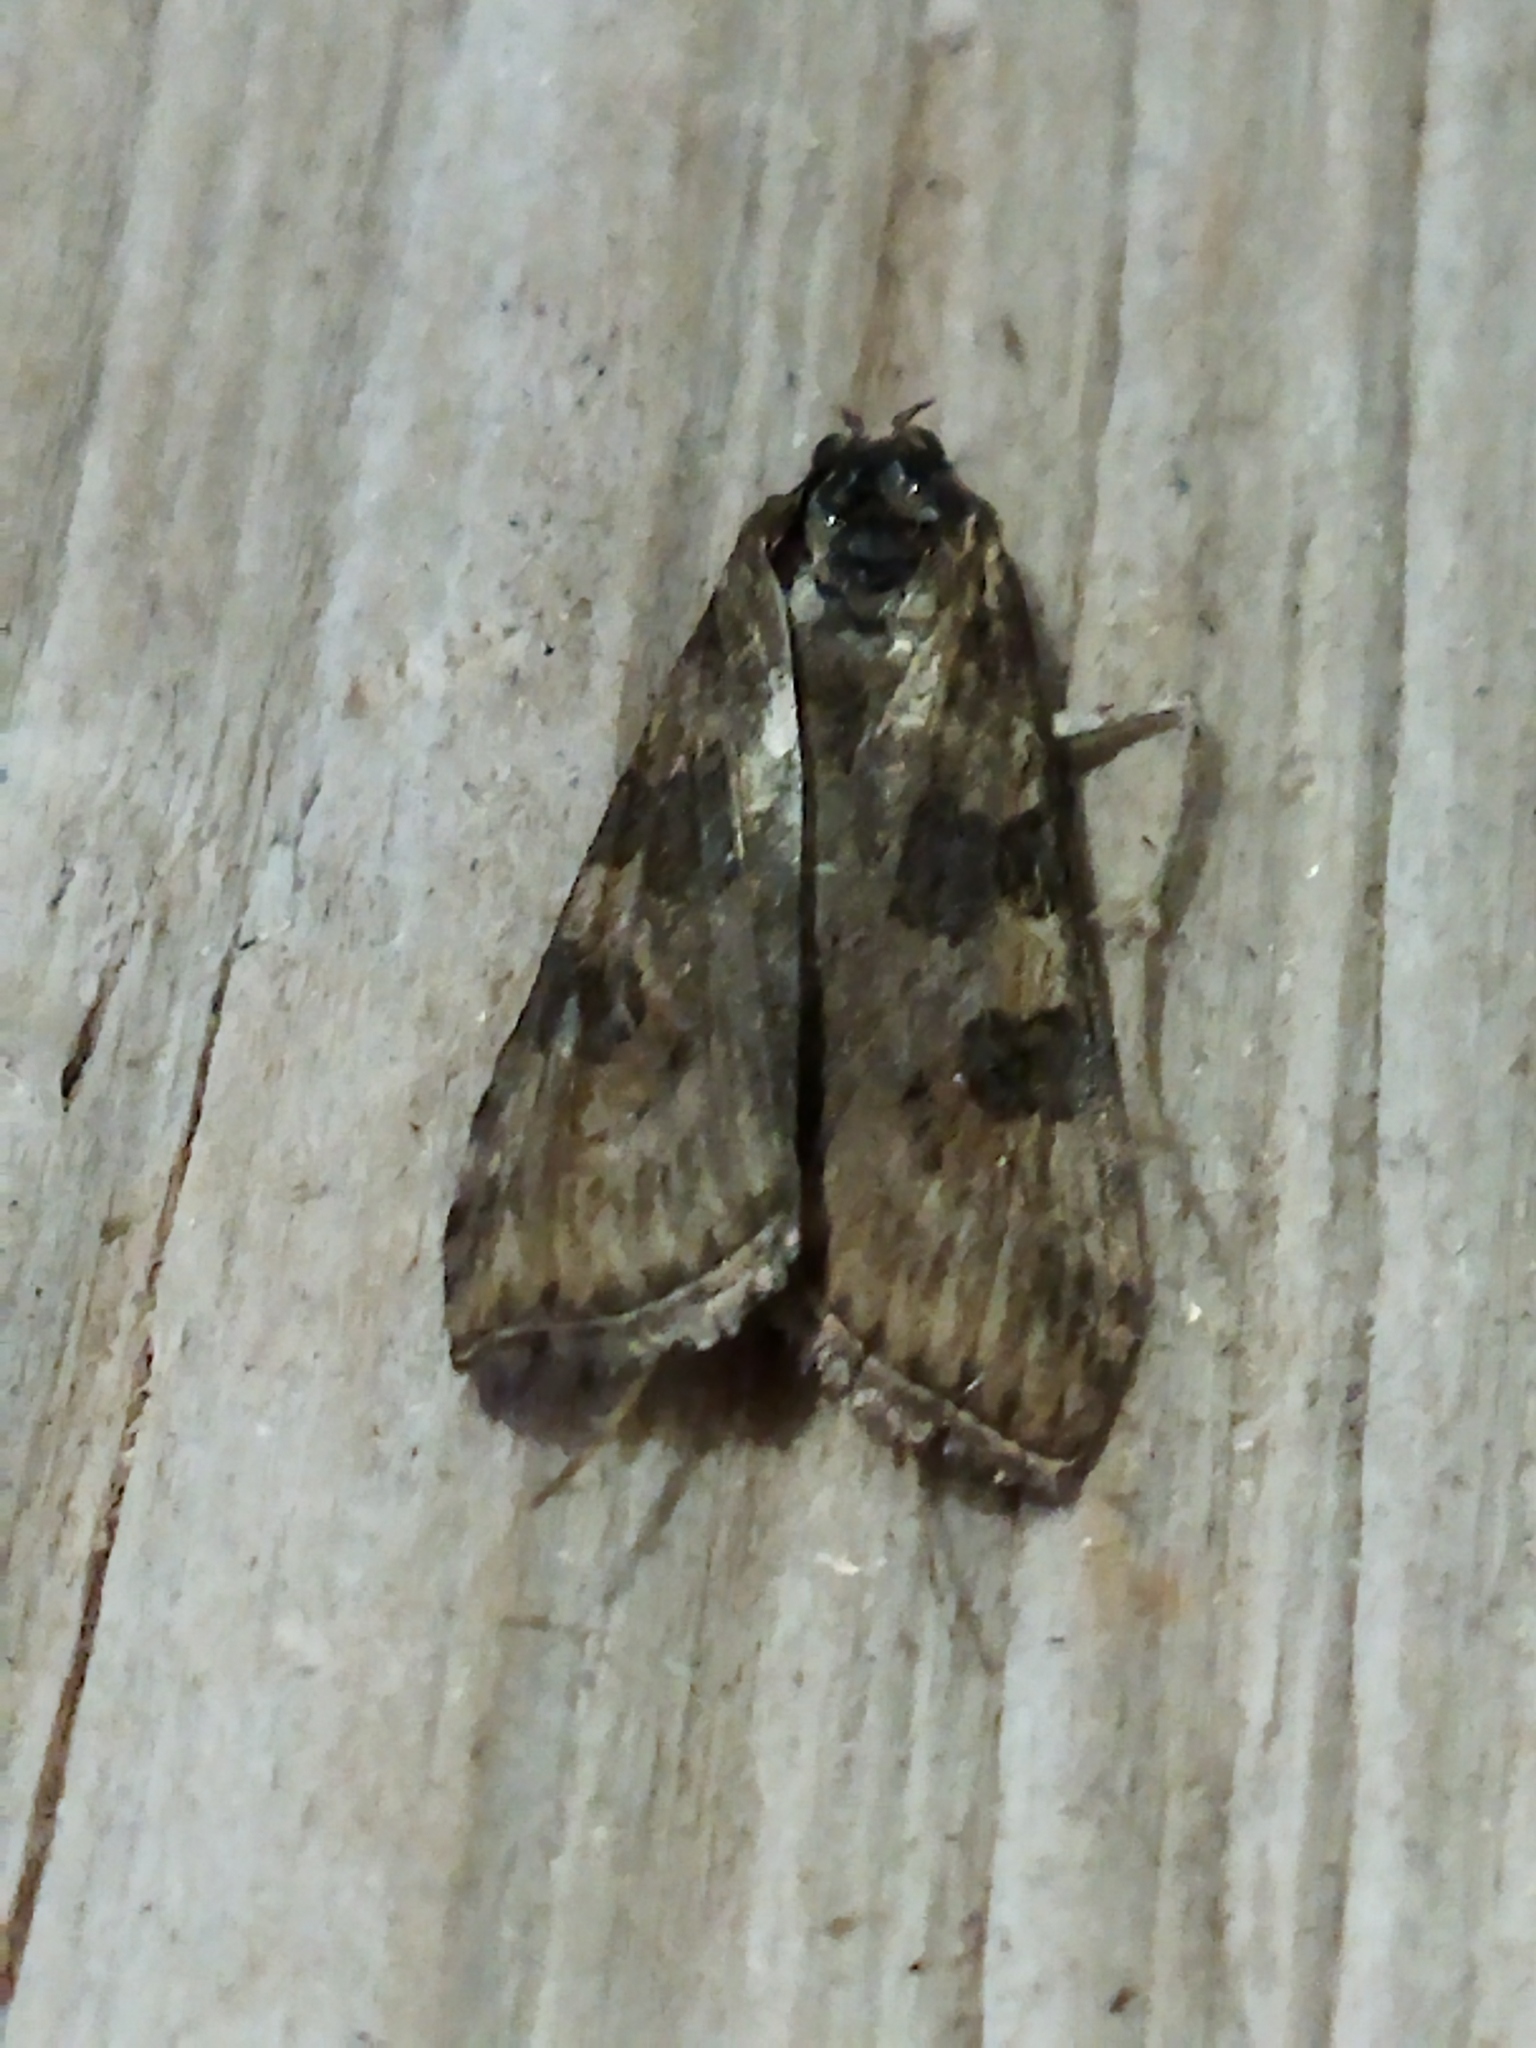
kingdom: Animalia
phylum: Arthropoda
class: Insecta
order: Lepidoptera
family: Crambidae
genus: Nomophila
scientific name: Nomophila noctuella
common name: Rush veneer
